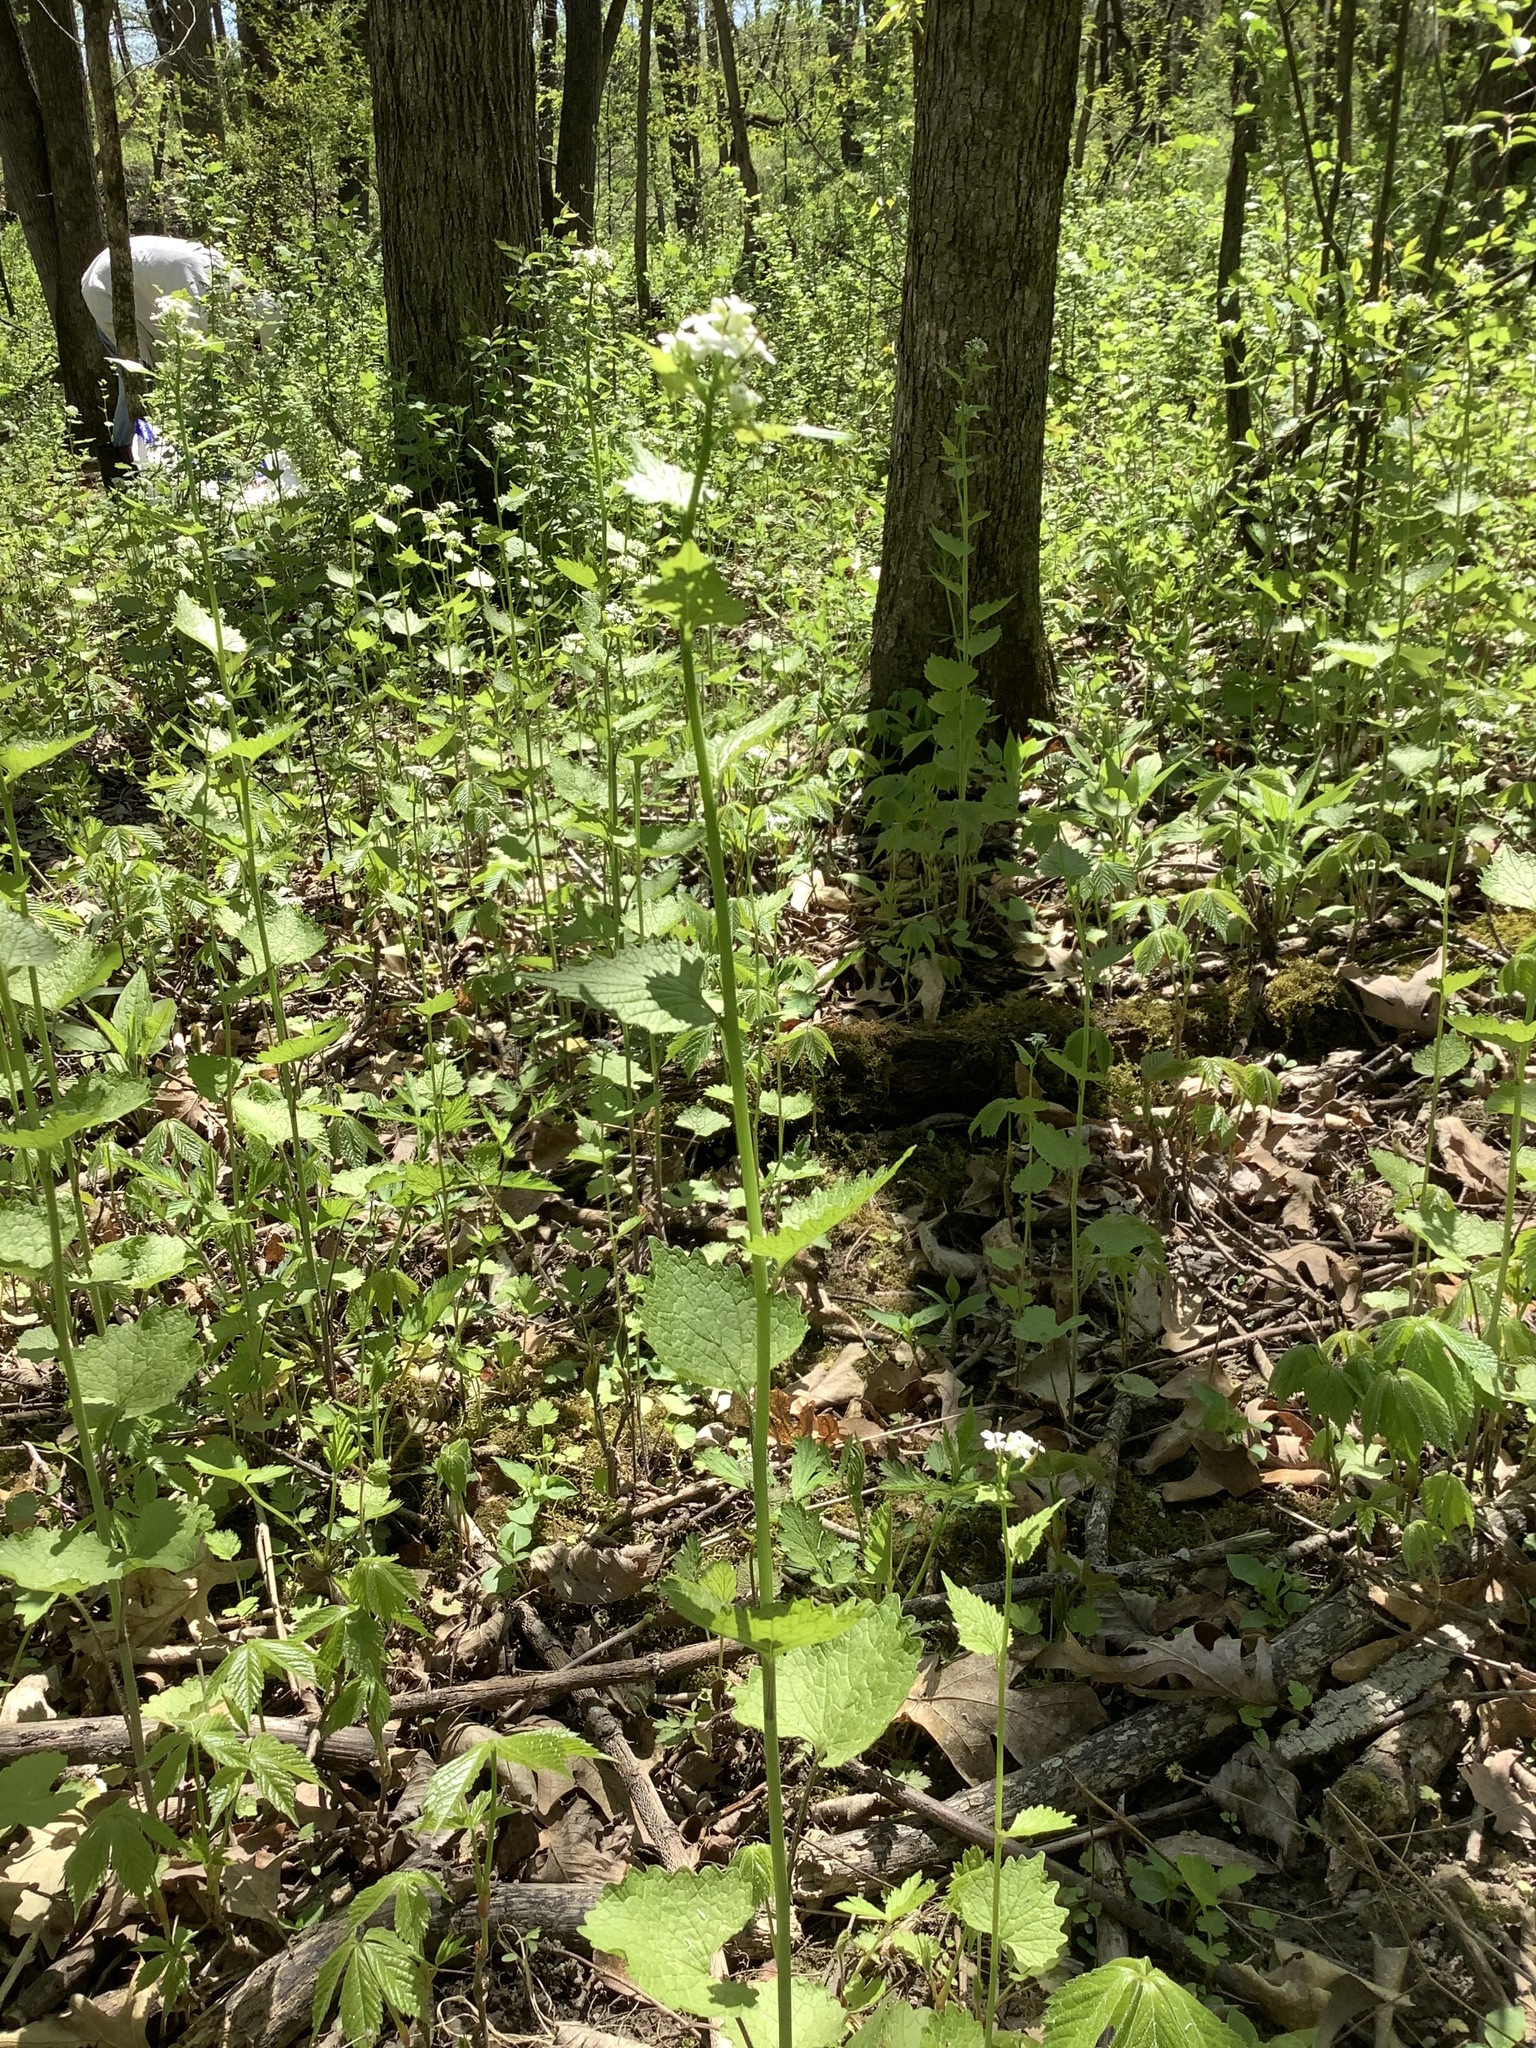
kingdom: Plantae
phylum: Tracheophyta
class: Magnoliopsida
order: Brassicales
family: Brassicaceae
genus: Alliaria
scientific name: Alliaria petiolata
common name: Garlic mustard
